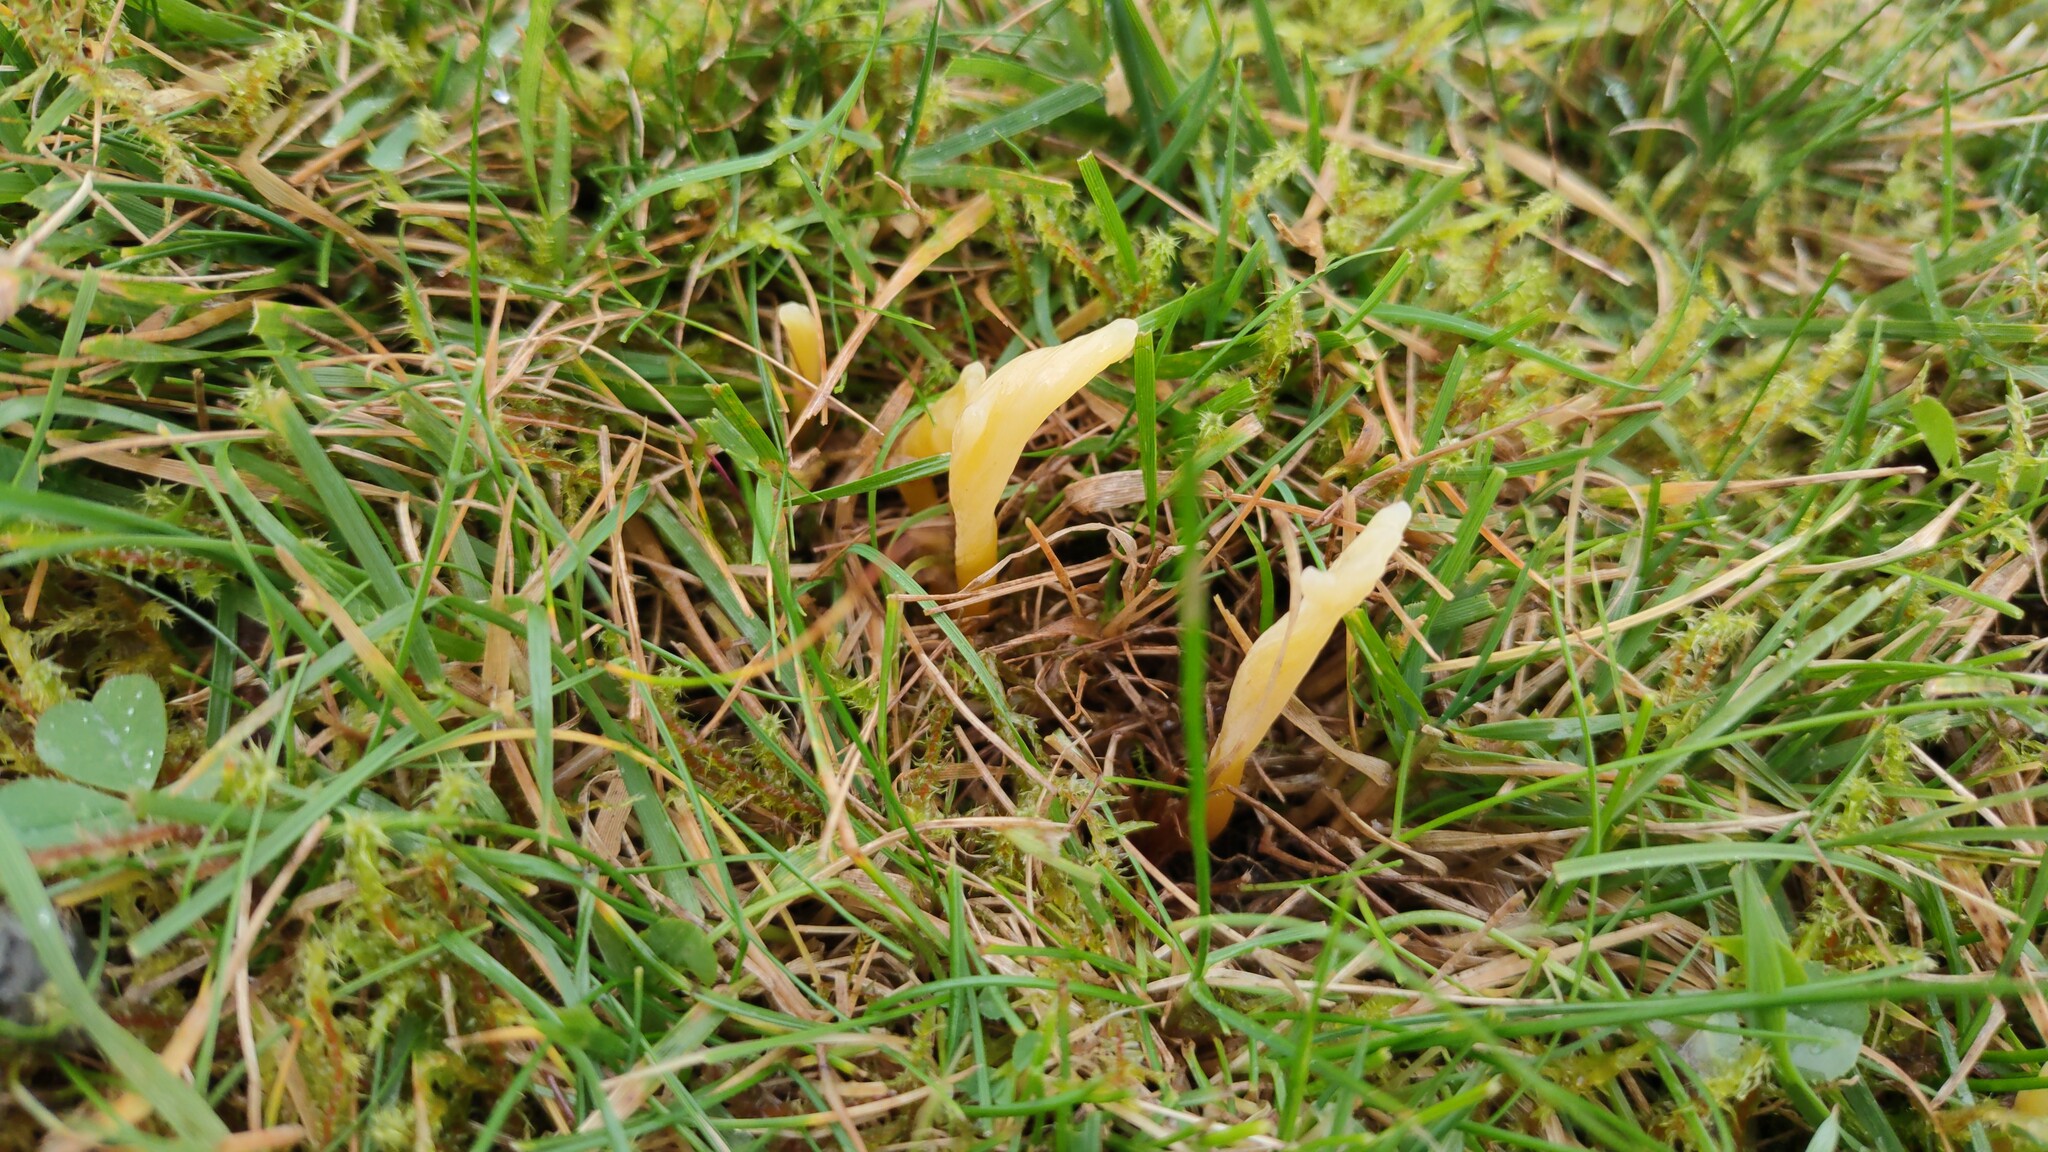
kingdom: Fungi
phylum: Basidiomycota
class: Agaricomycetes
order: Agaricales
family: Clavariaceae
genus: Clavaria
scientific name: Clavaria flavipes
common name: Straw club
